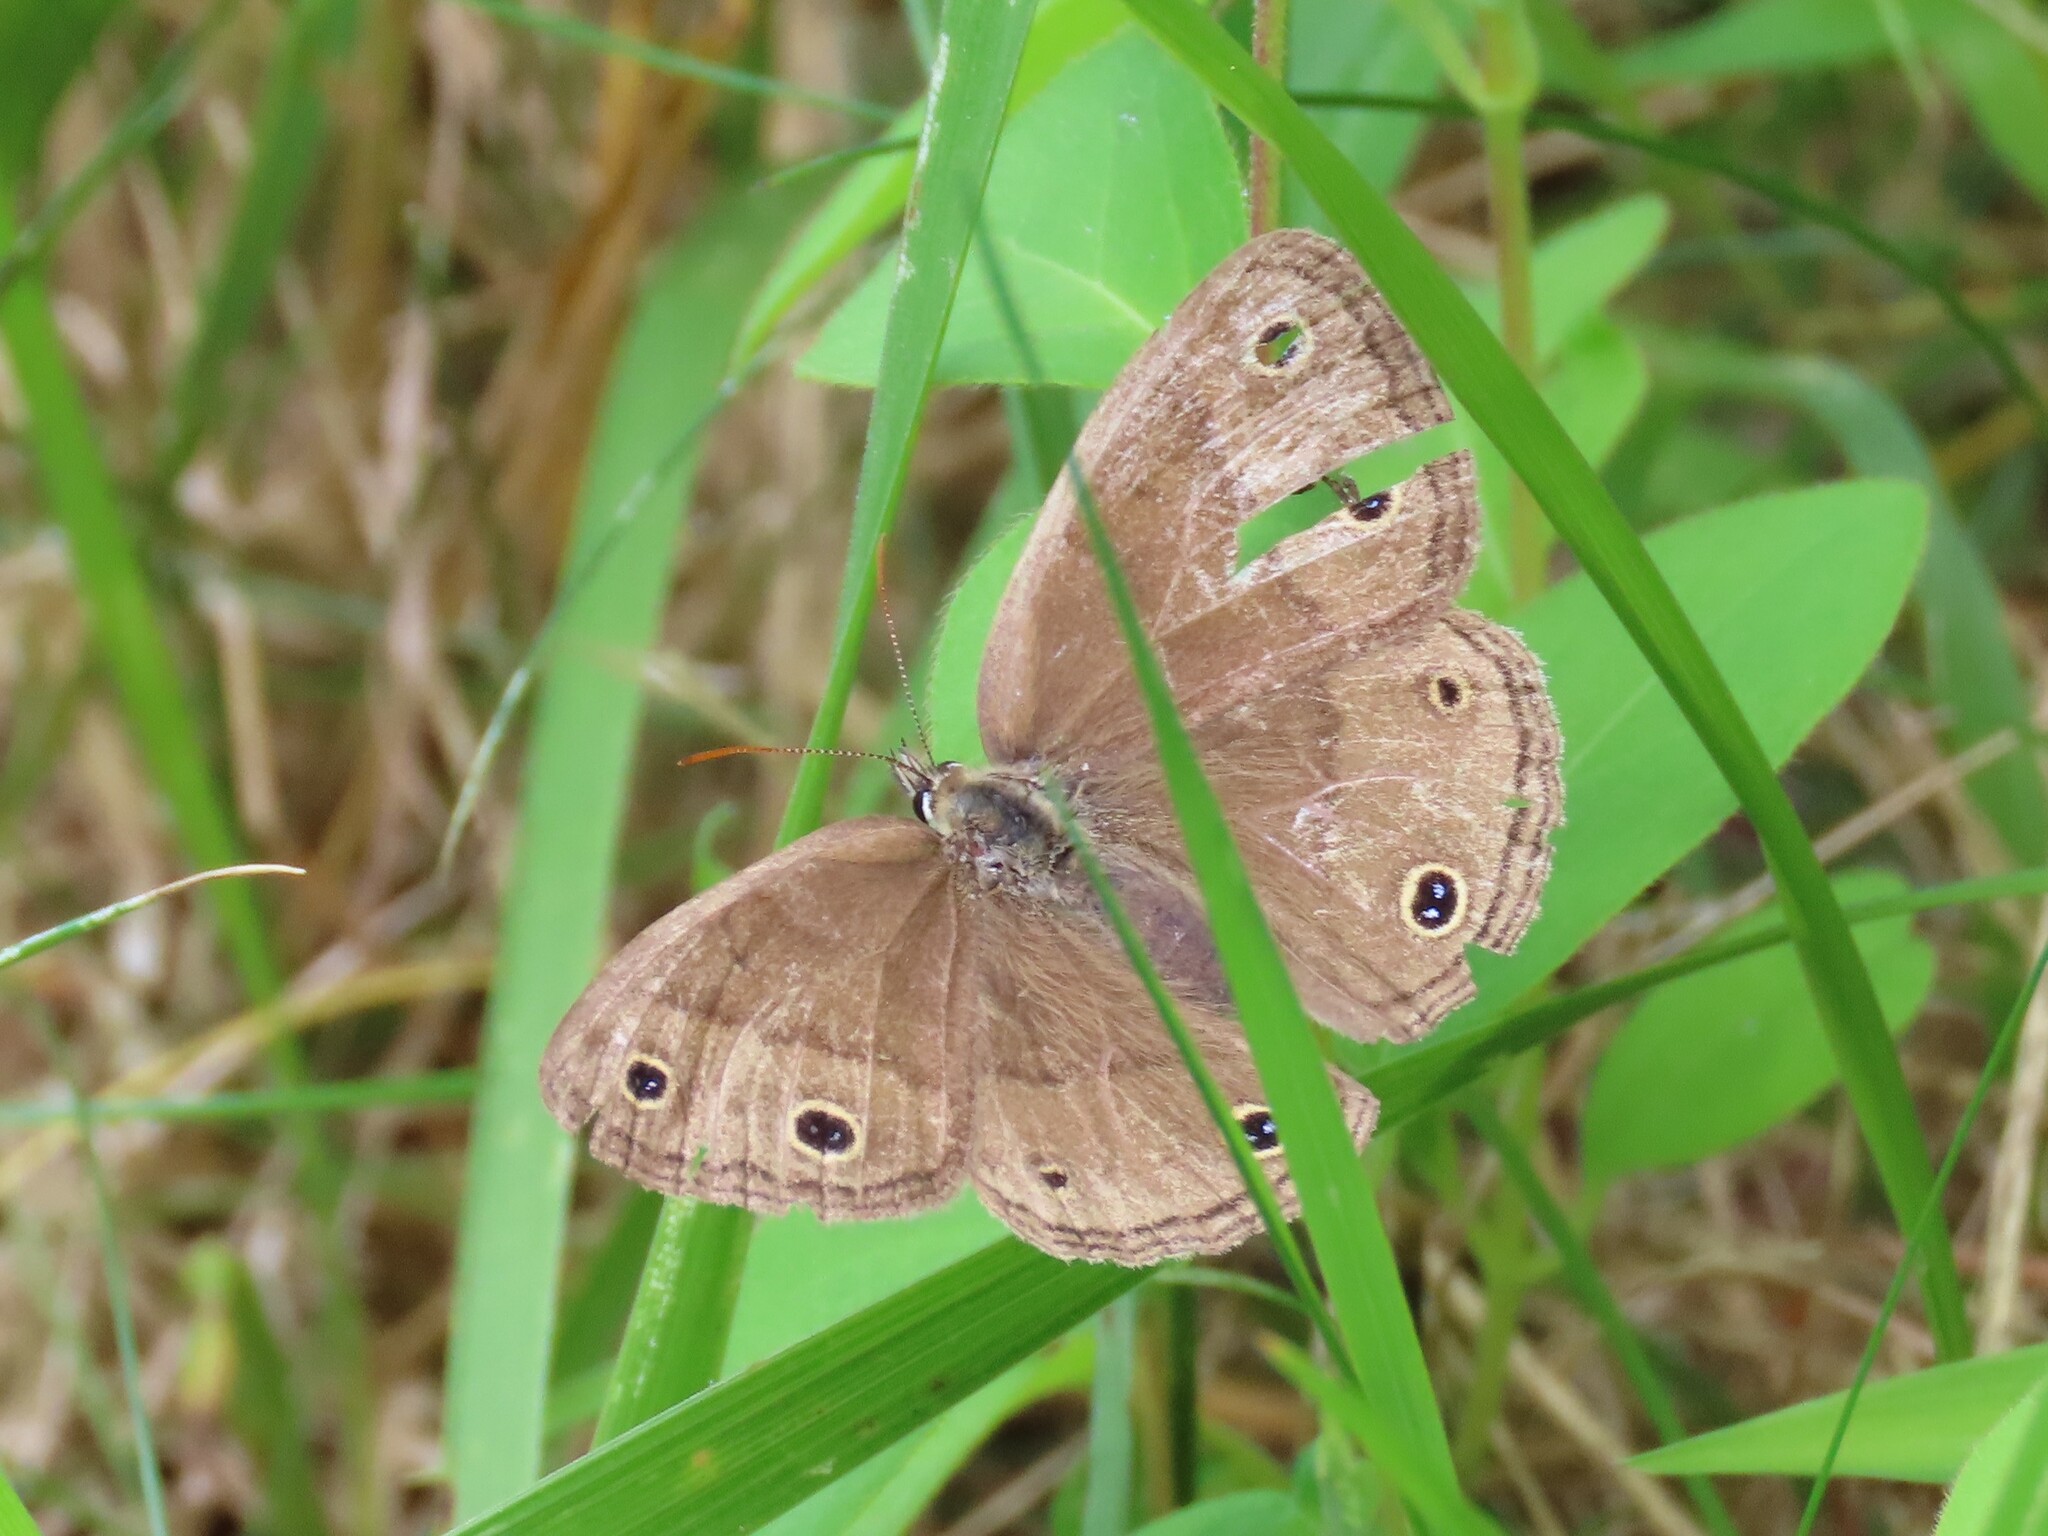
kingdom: Animalia
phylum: Arthropoda
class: Insecta
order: Lepidoptera
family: Nymphalidae
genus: Euptychia
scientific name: Euptychia cymela
